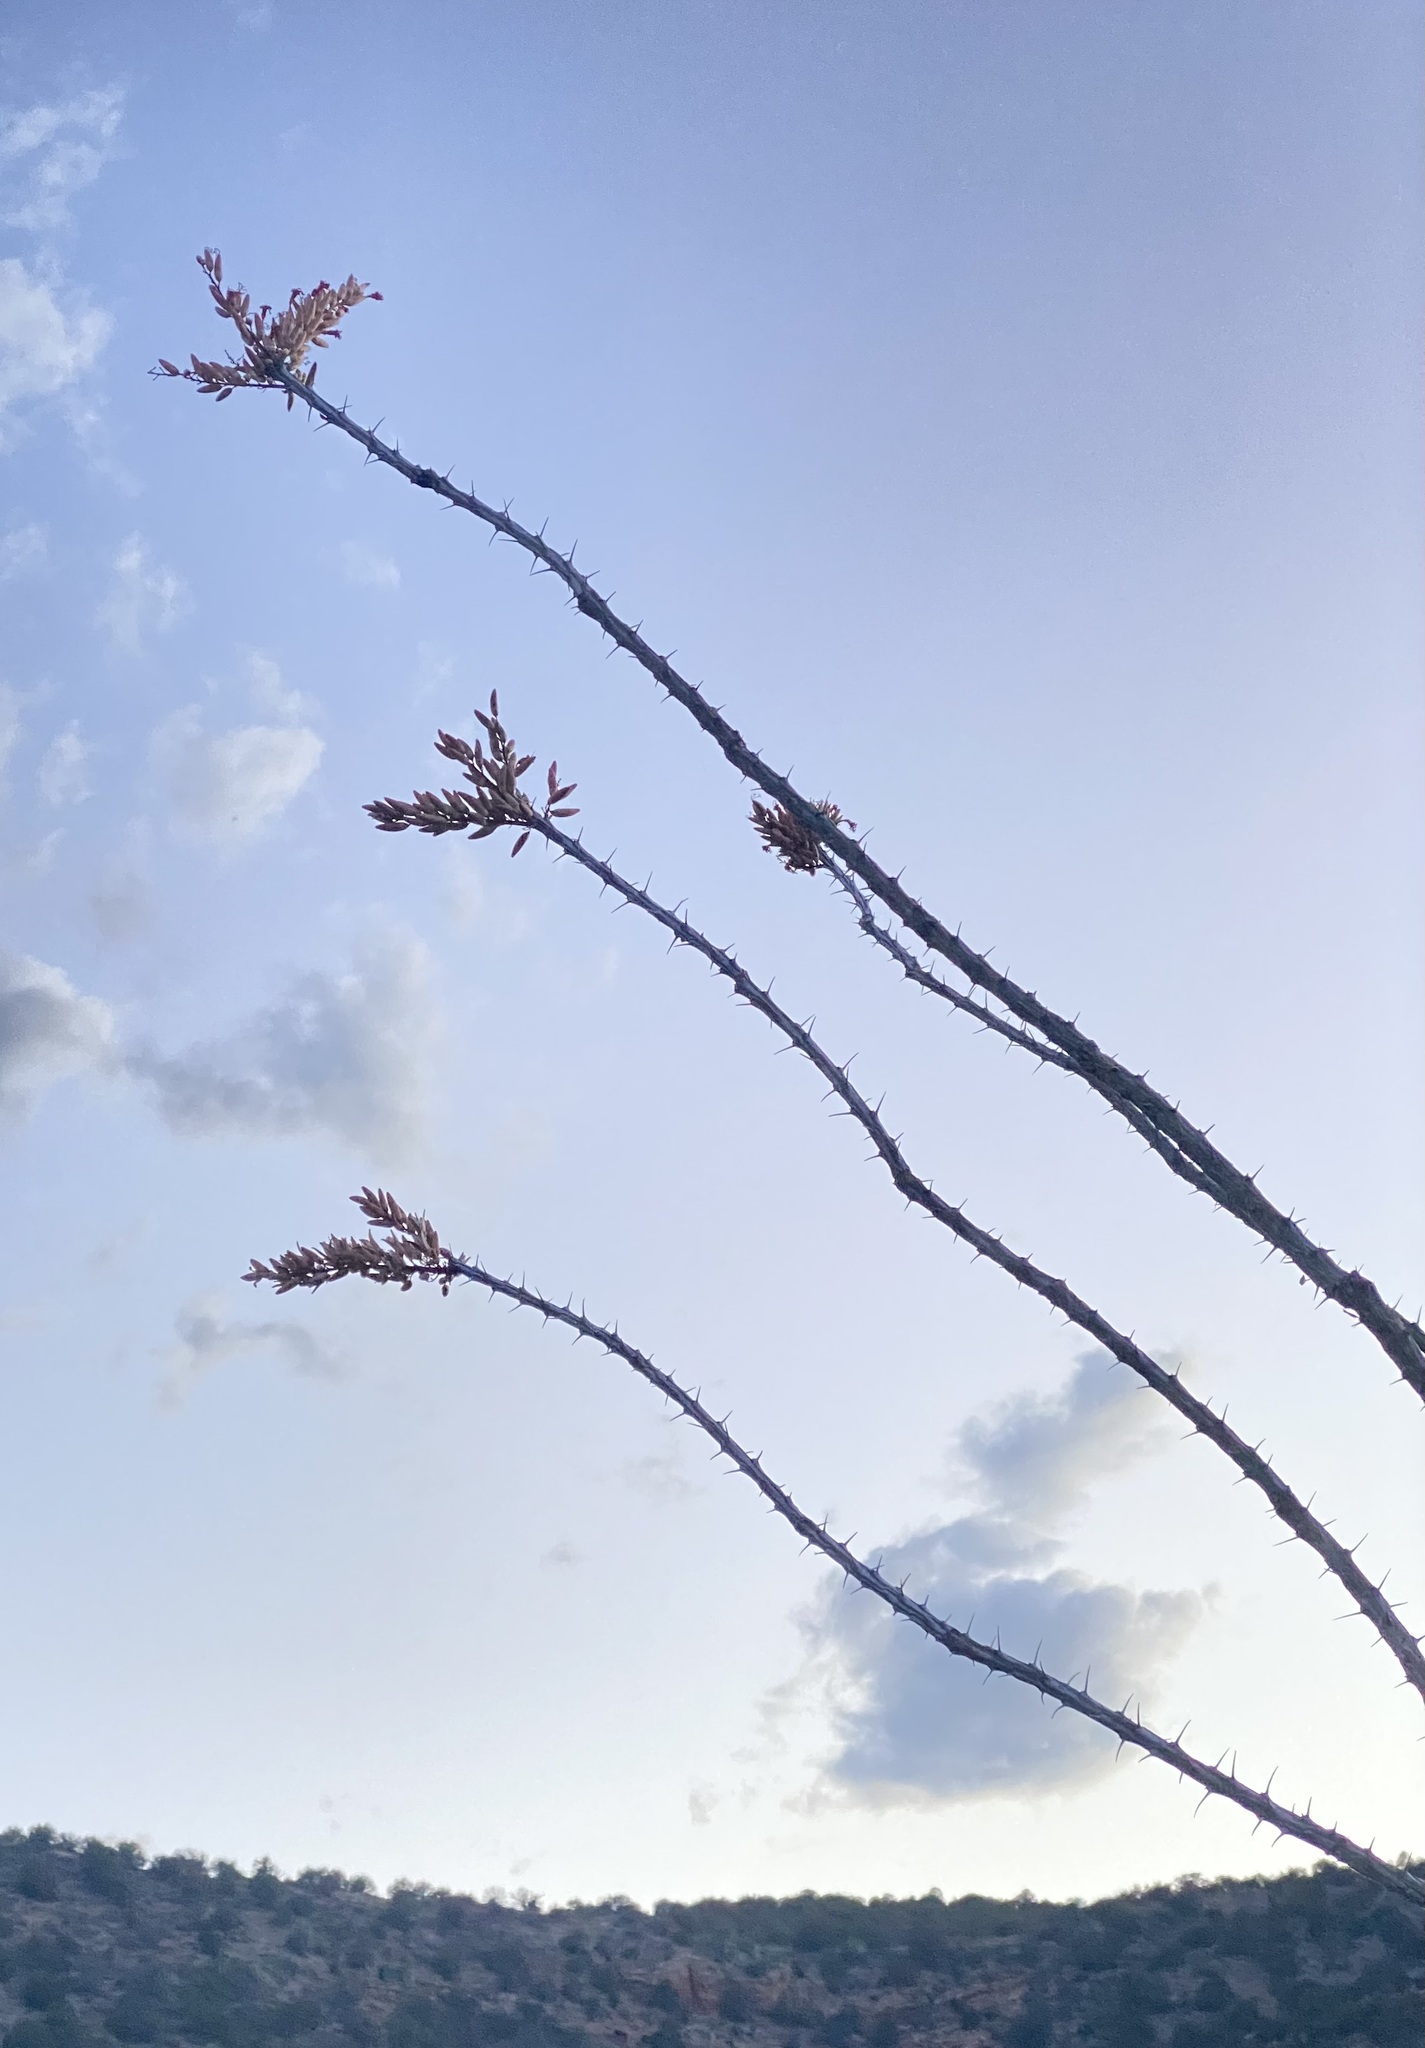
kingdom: Plantae
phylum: Tracheophyta
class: Magnoliopsida
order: Ericales
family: Fouquieriaceae
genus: Fouquieria
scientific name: Fouquieria splendens
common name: Vine-cactus
